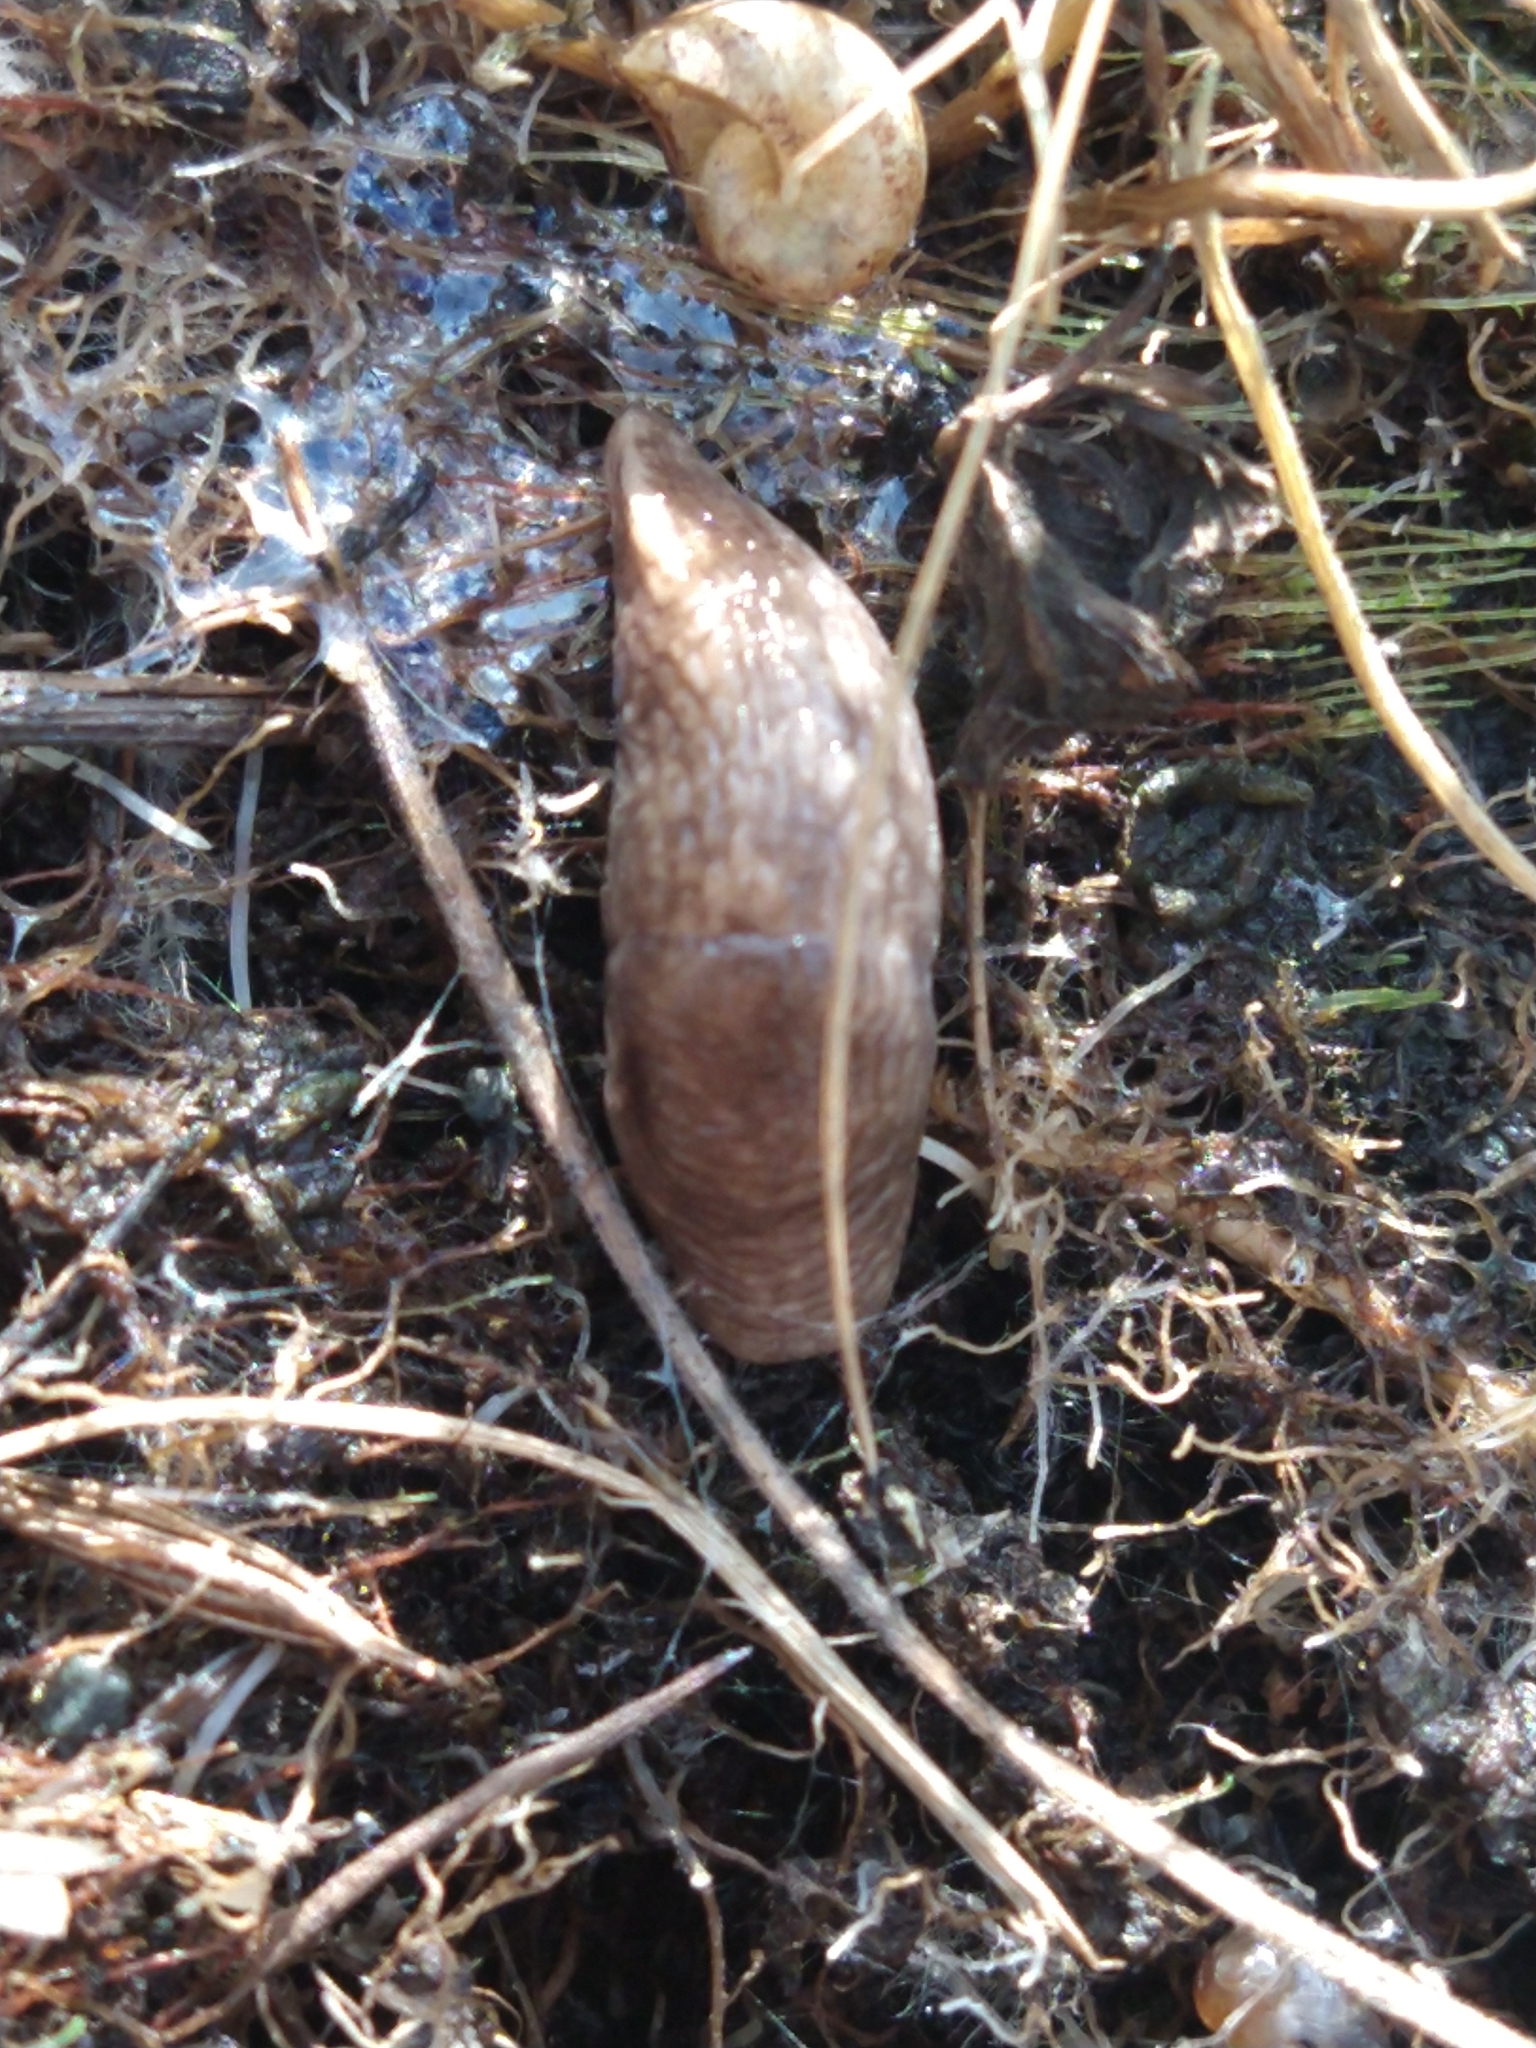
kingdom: Animalia
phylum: Mollusca
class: Gastropoda
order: Stylommatophora
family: Agriolimacidae
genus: Deroceras
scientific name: Deroceras reticulatum
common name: Gray field slug
